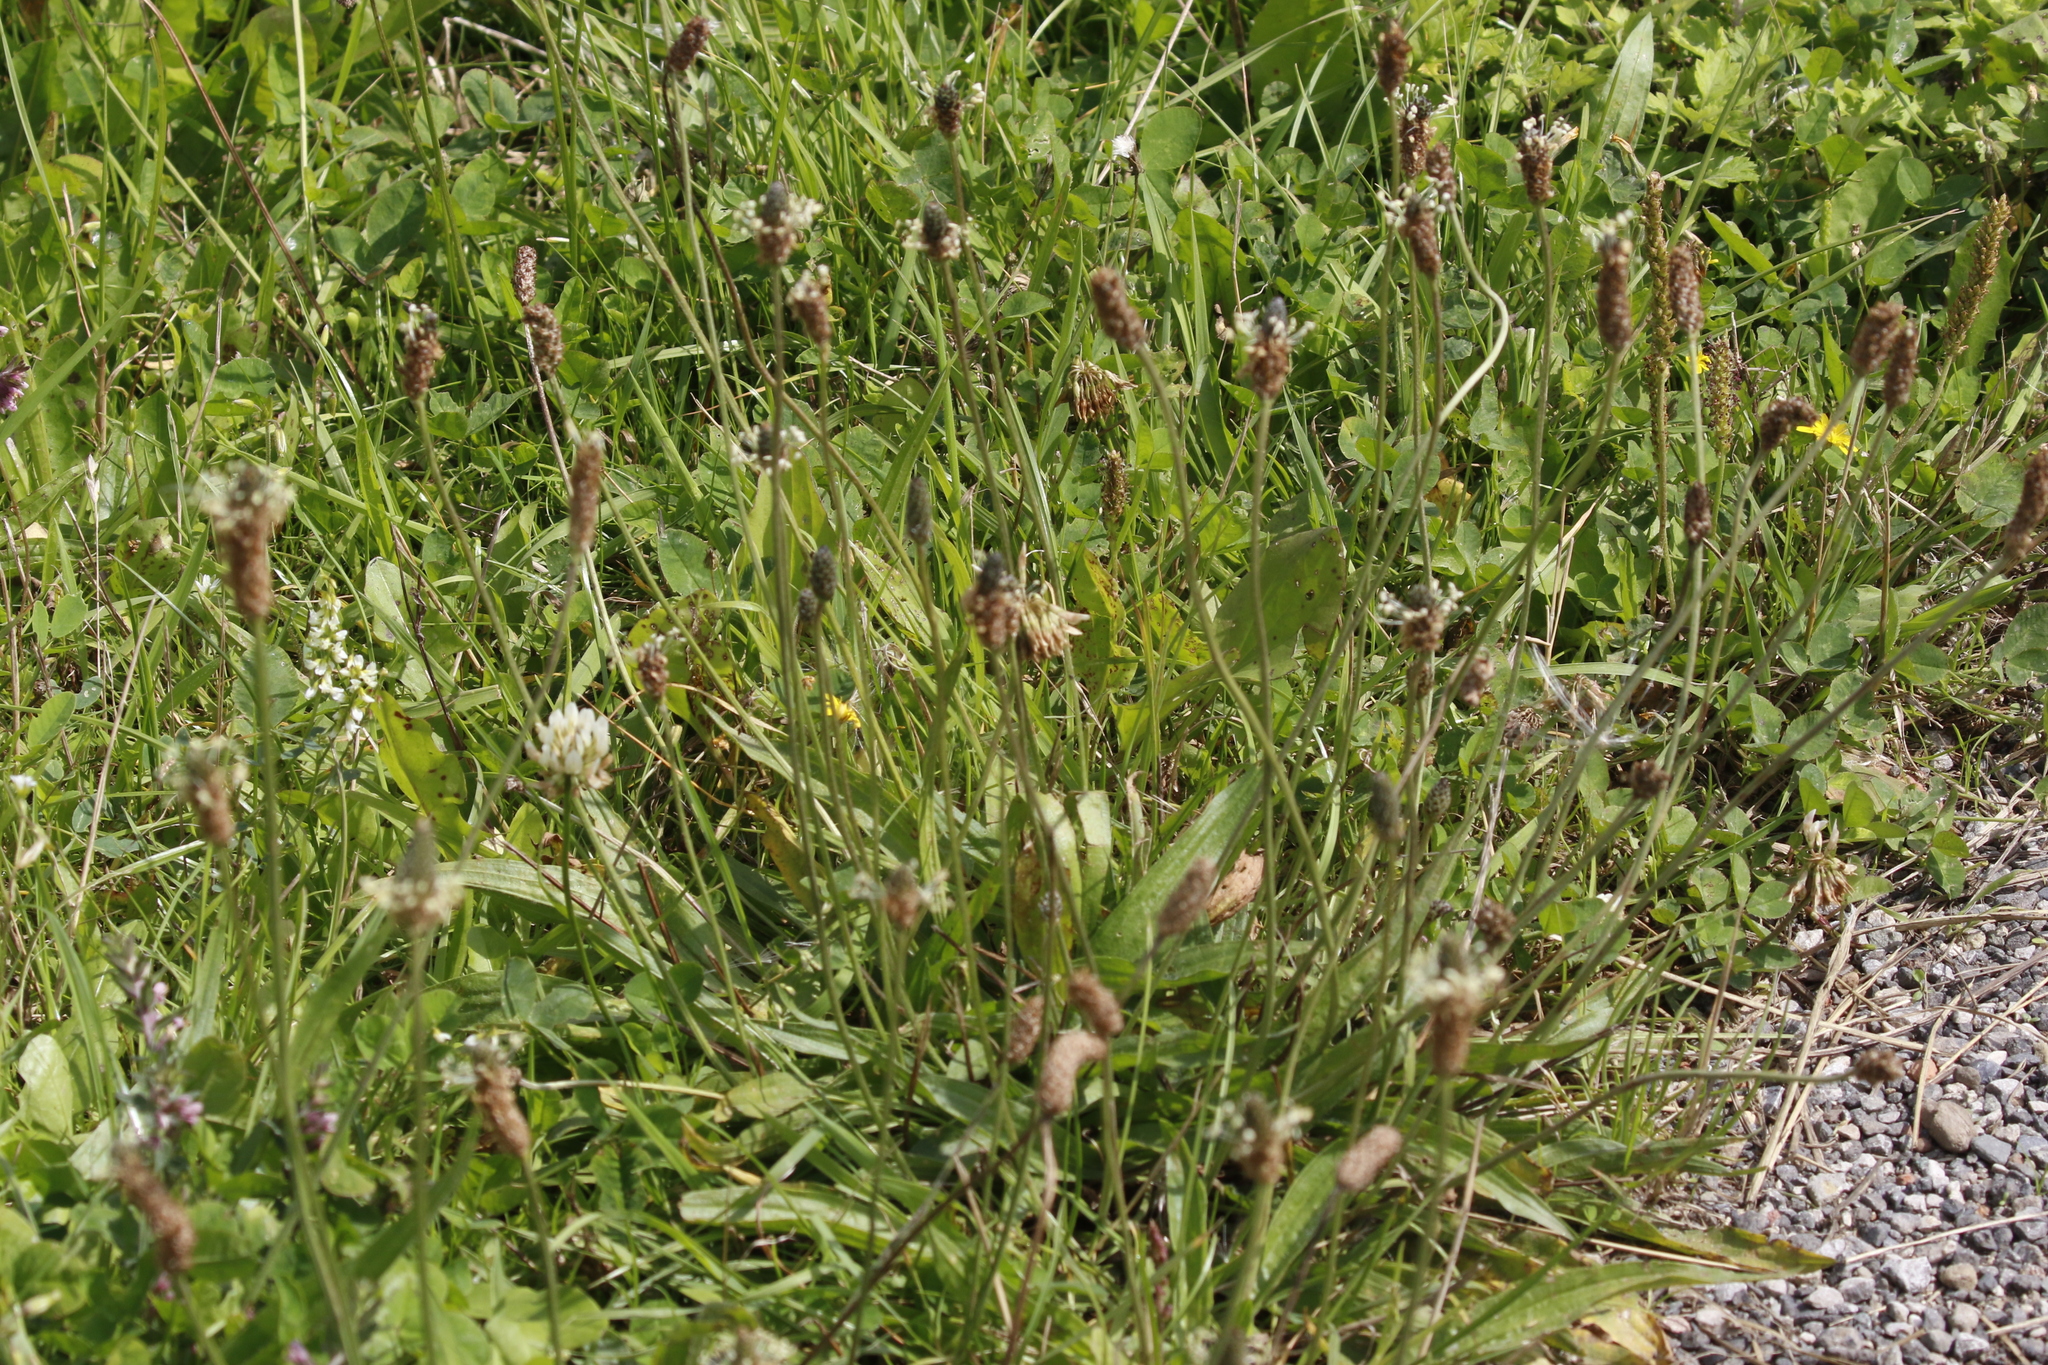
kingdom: Plantae
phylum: Tracheophyta
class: Magnoliopsida
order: Lamiales
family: Plantaginaceae
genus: Plantago
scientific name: Plantago lanceolata
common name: Ribwort plantain
